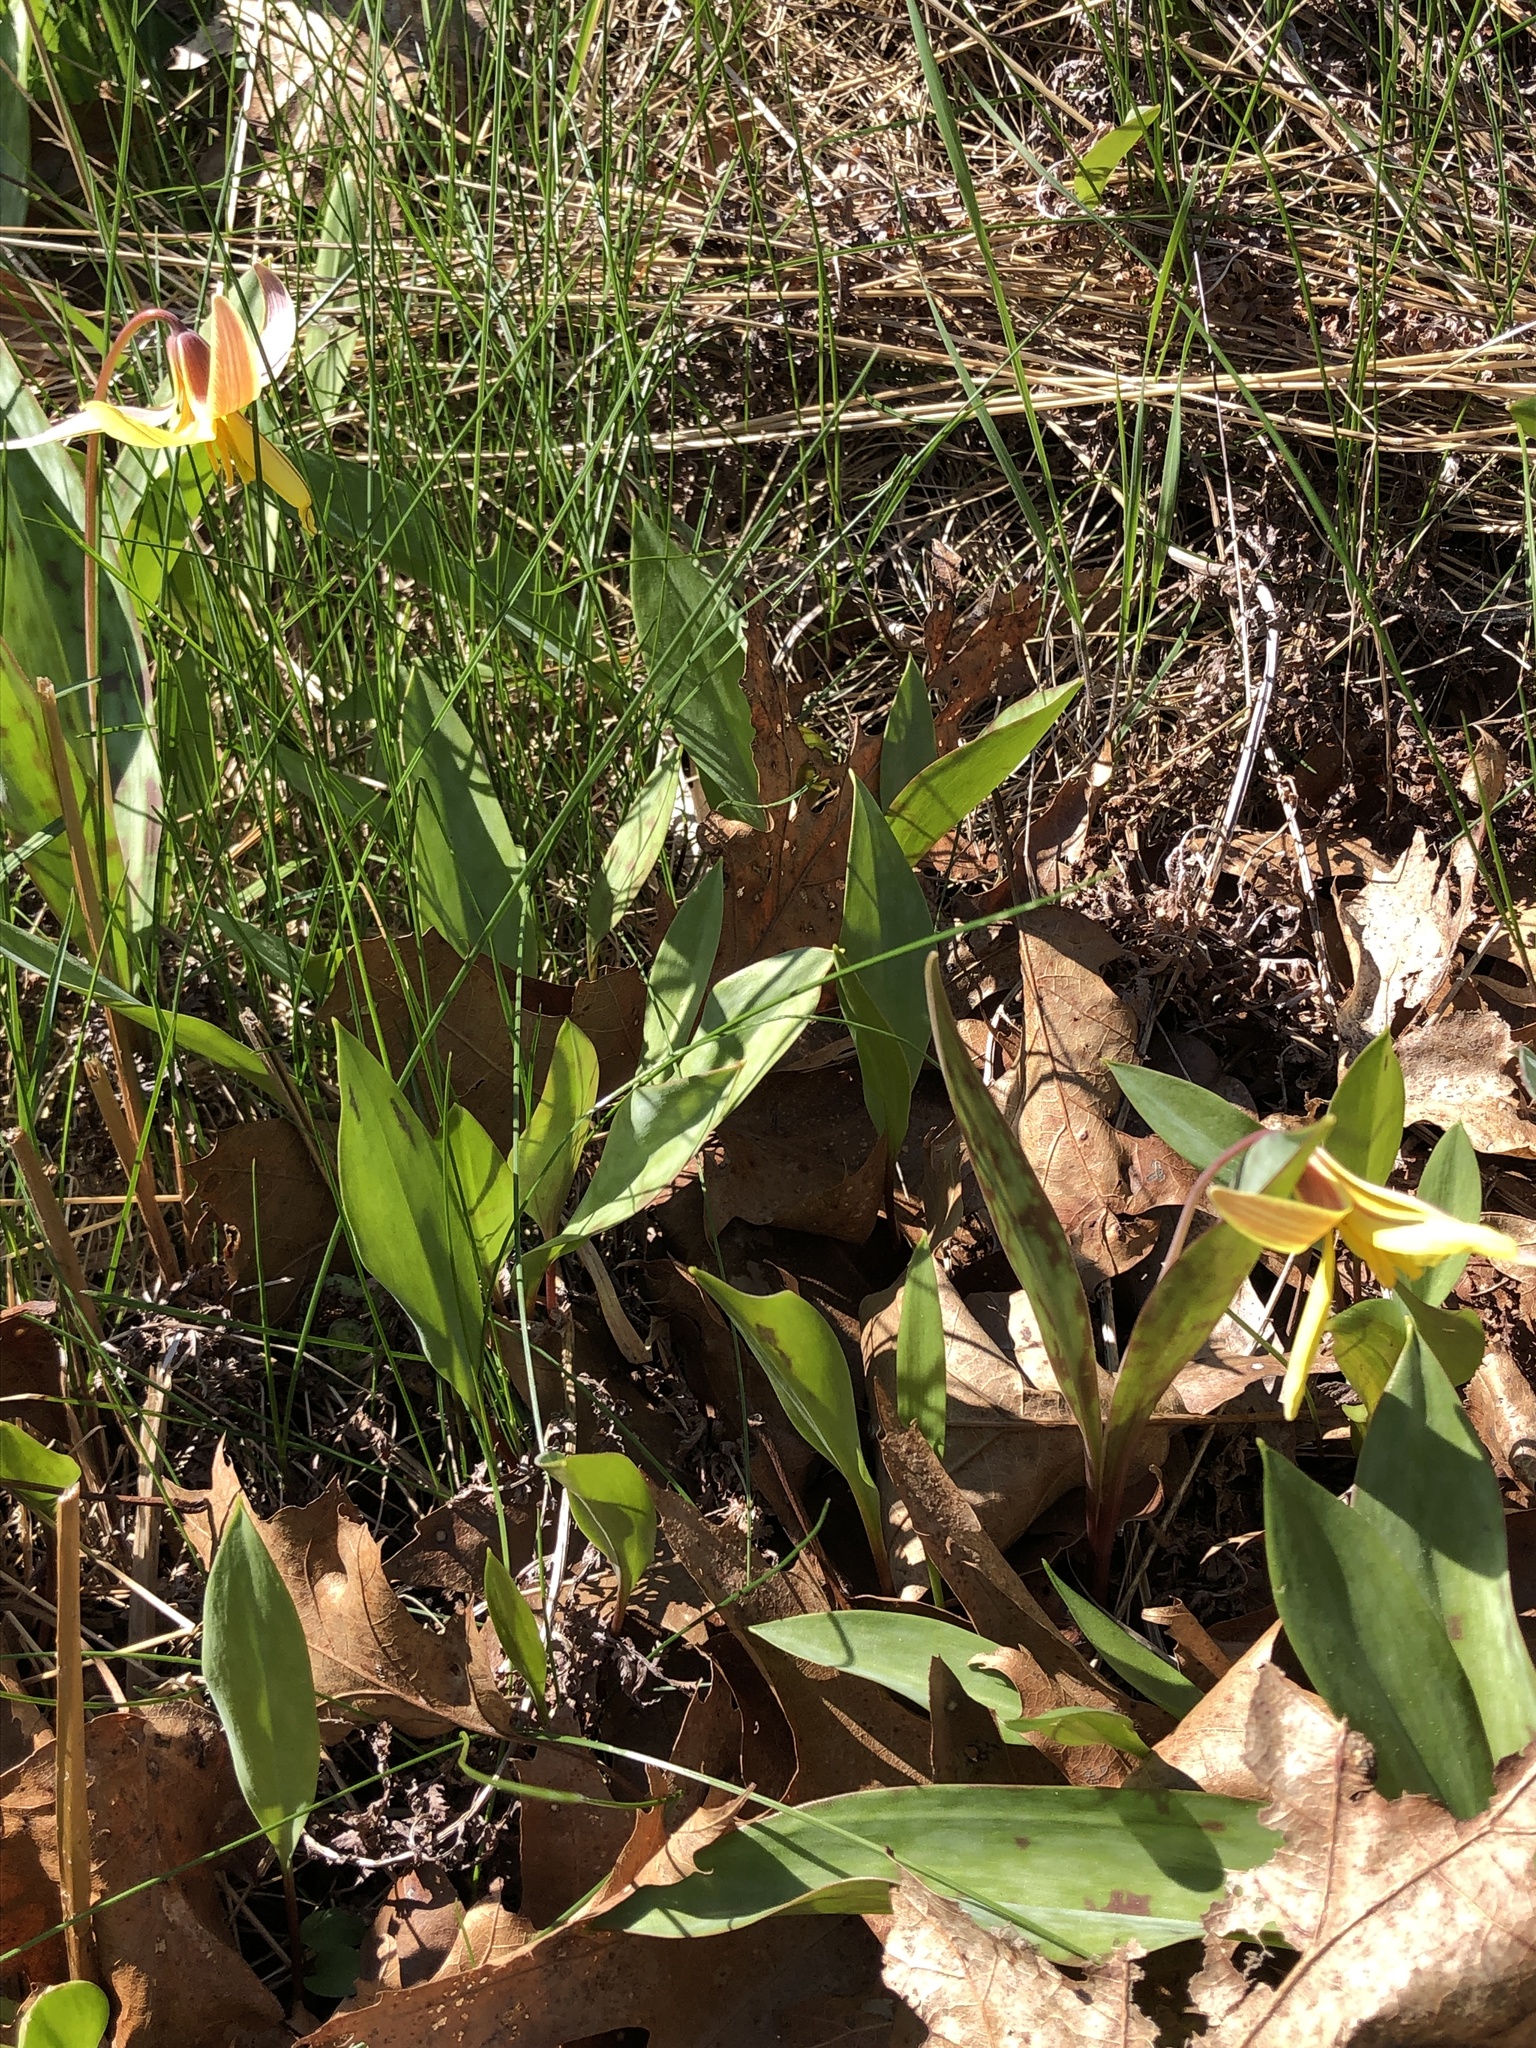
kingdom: Plantae
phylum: Tracheophyta
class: Liliopsida
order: Liliales
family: Liliaceae
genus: Erythronium
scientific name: Erythronium americanum
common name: Yellow adder's-tongue
